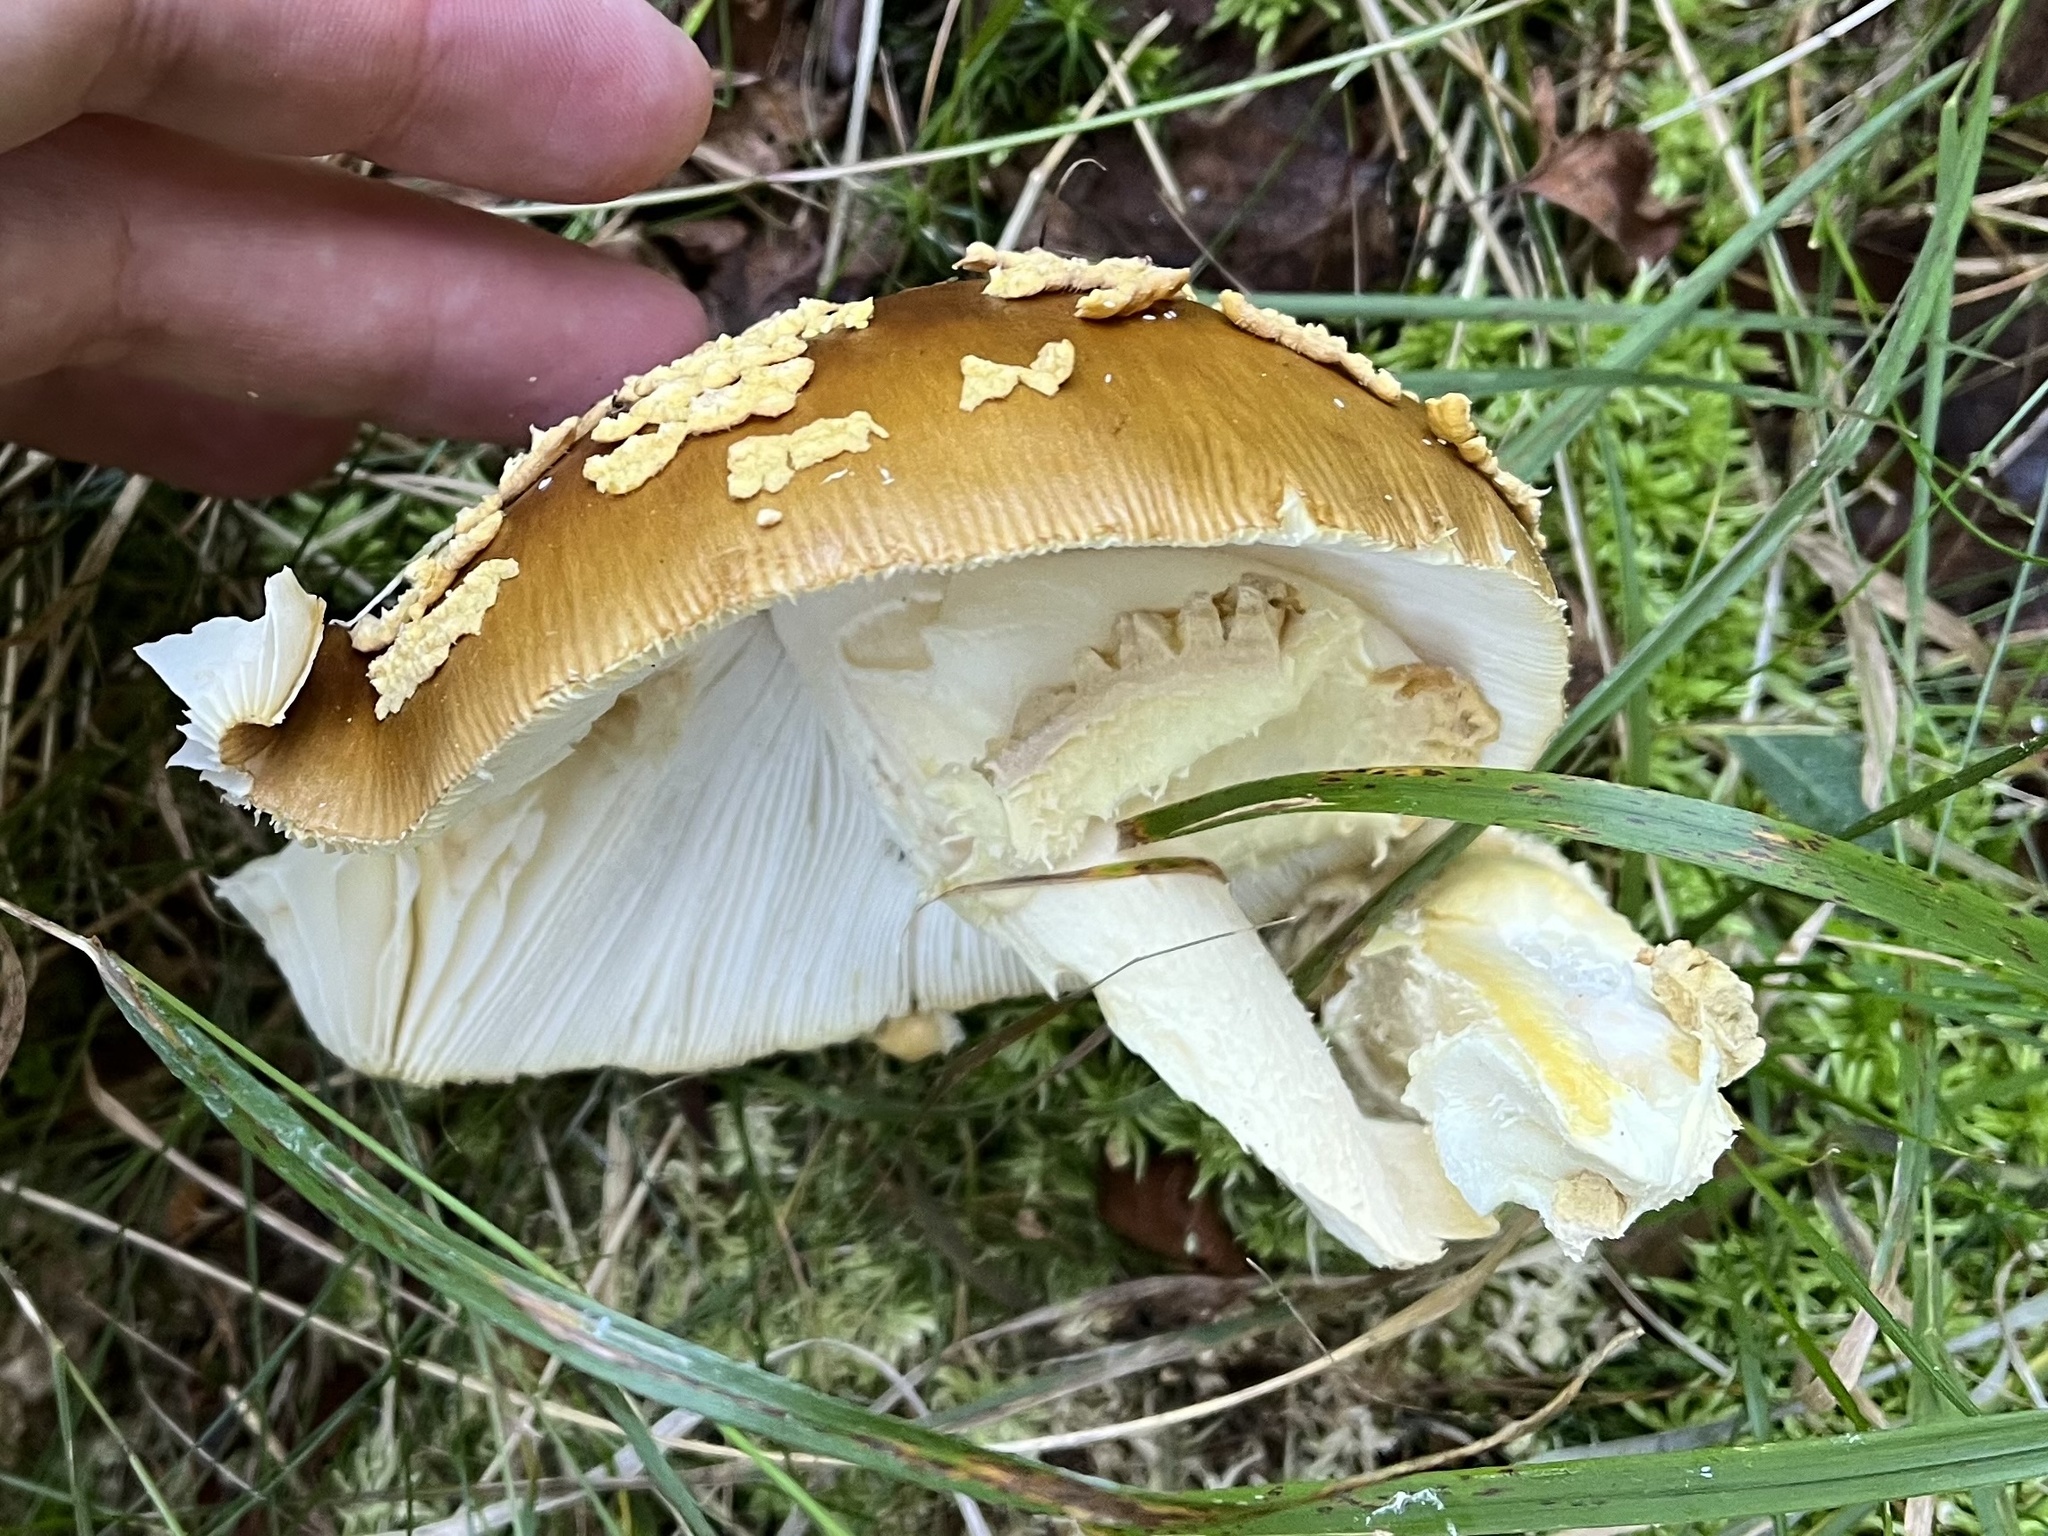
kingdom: Fungi
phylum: Basidiomycota
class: Agaricomycetes
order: Agaricales
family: Amanitaceae
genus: Amanita
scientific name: Amanita regalis
